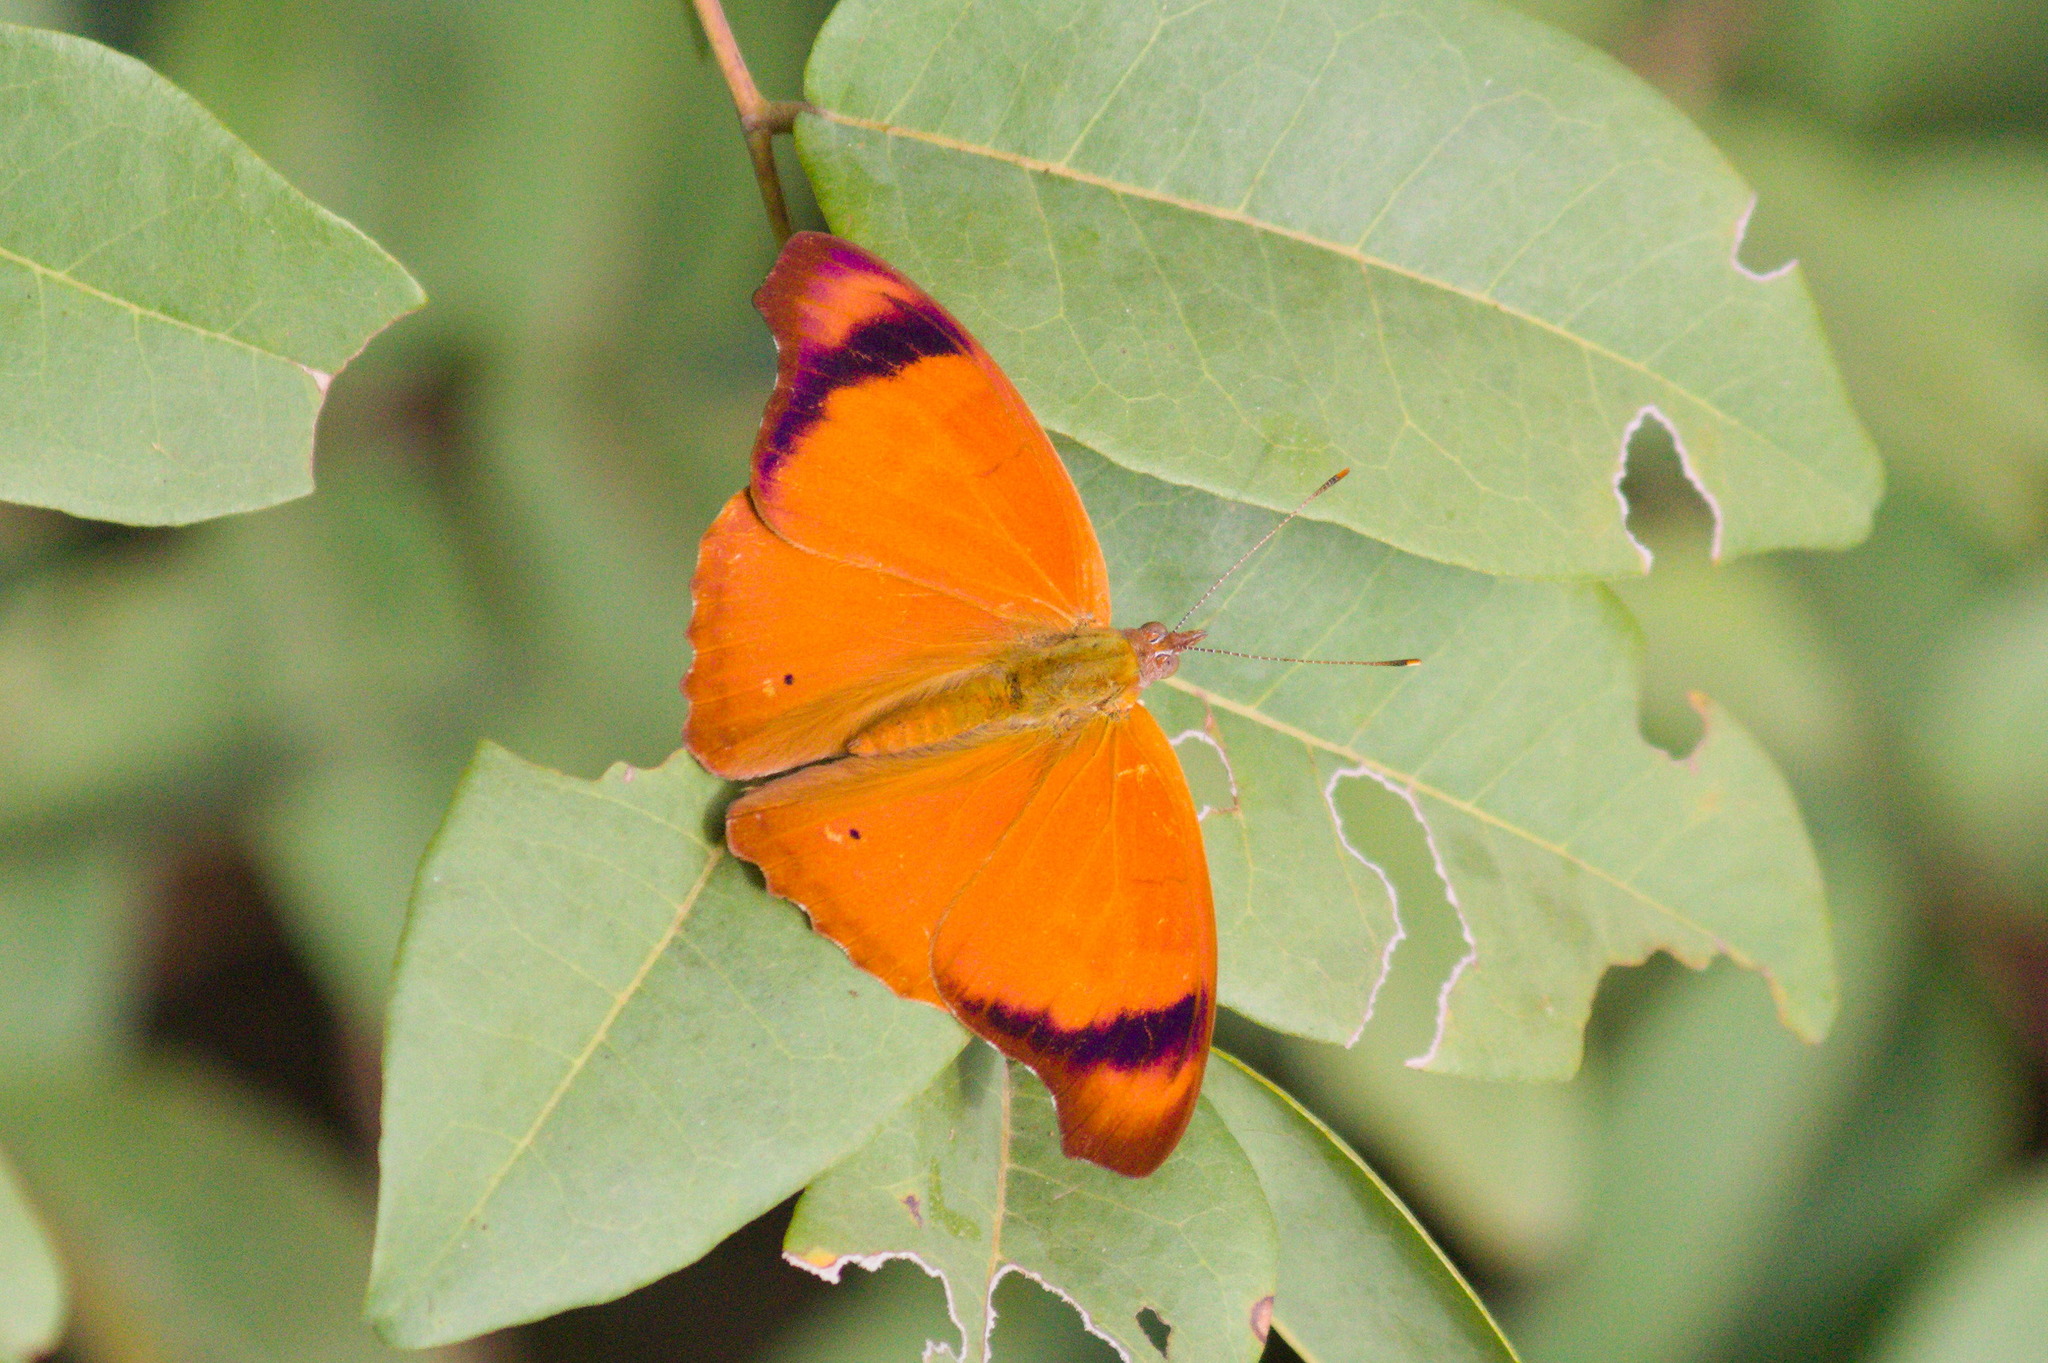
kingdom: Animalia
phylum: Arthropoda
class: Insecta
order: Lepidoptera
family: Nymphalidae
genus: Temenis
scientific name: Temenis laothoe
